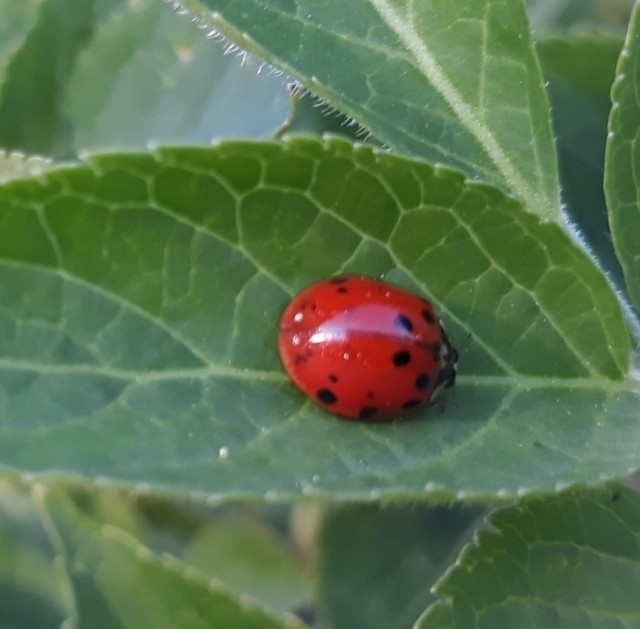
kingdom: Animalia
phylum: Arthropoda
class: Insecta
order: Coleoptera
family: Coccinellidae
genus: Harmonia
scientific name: Harmonia axyridis
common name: Harlequin ladybird
